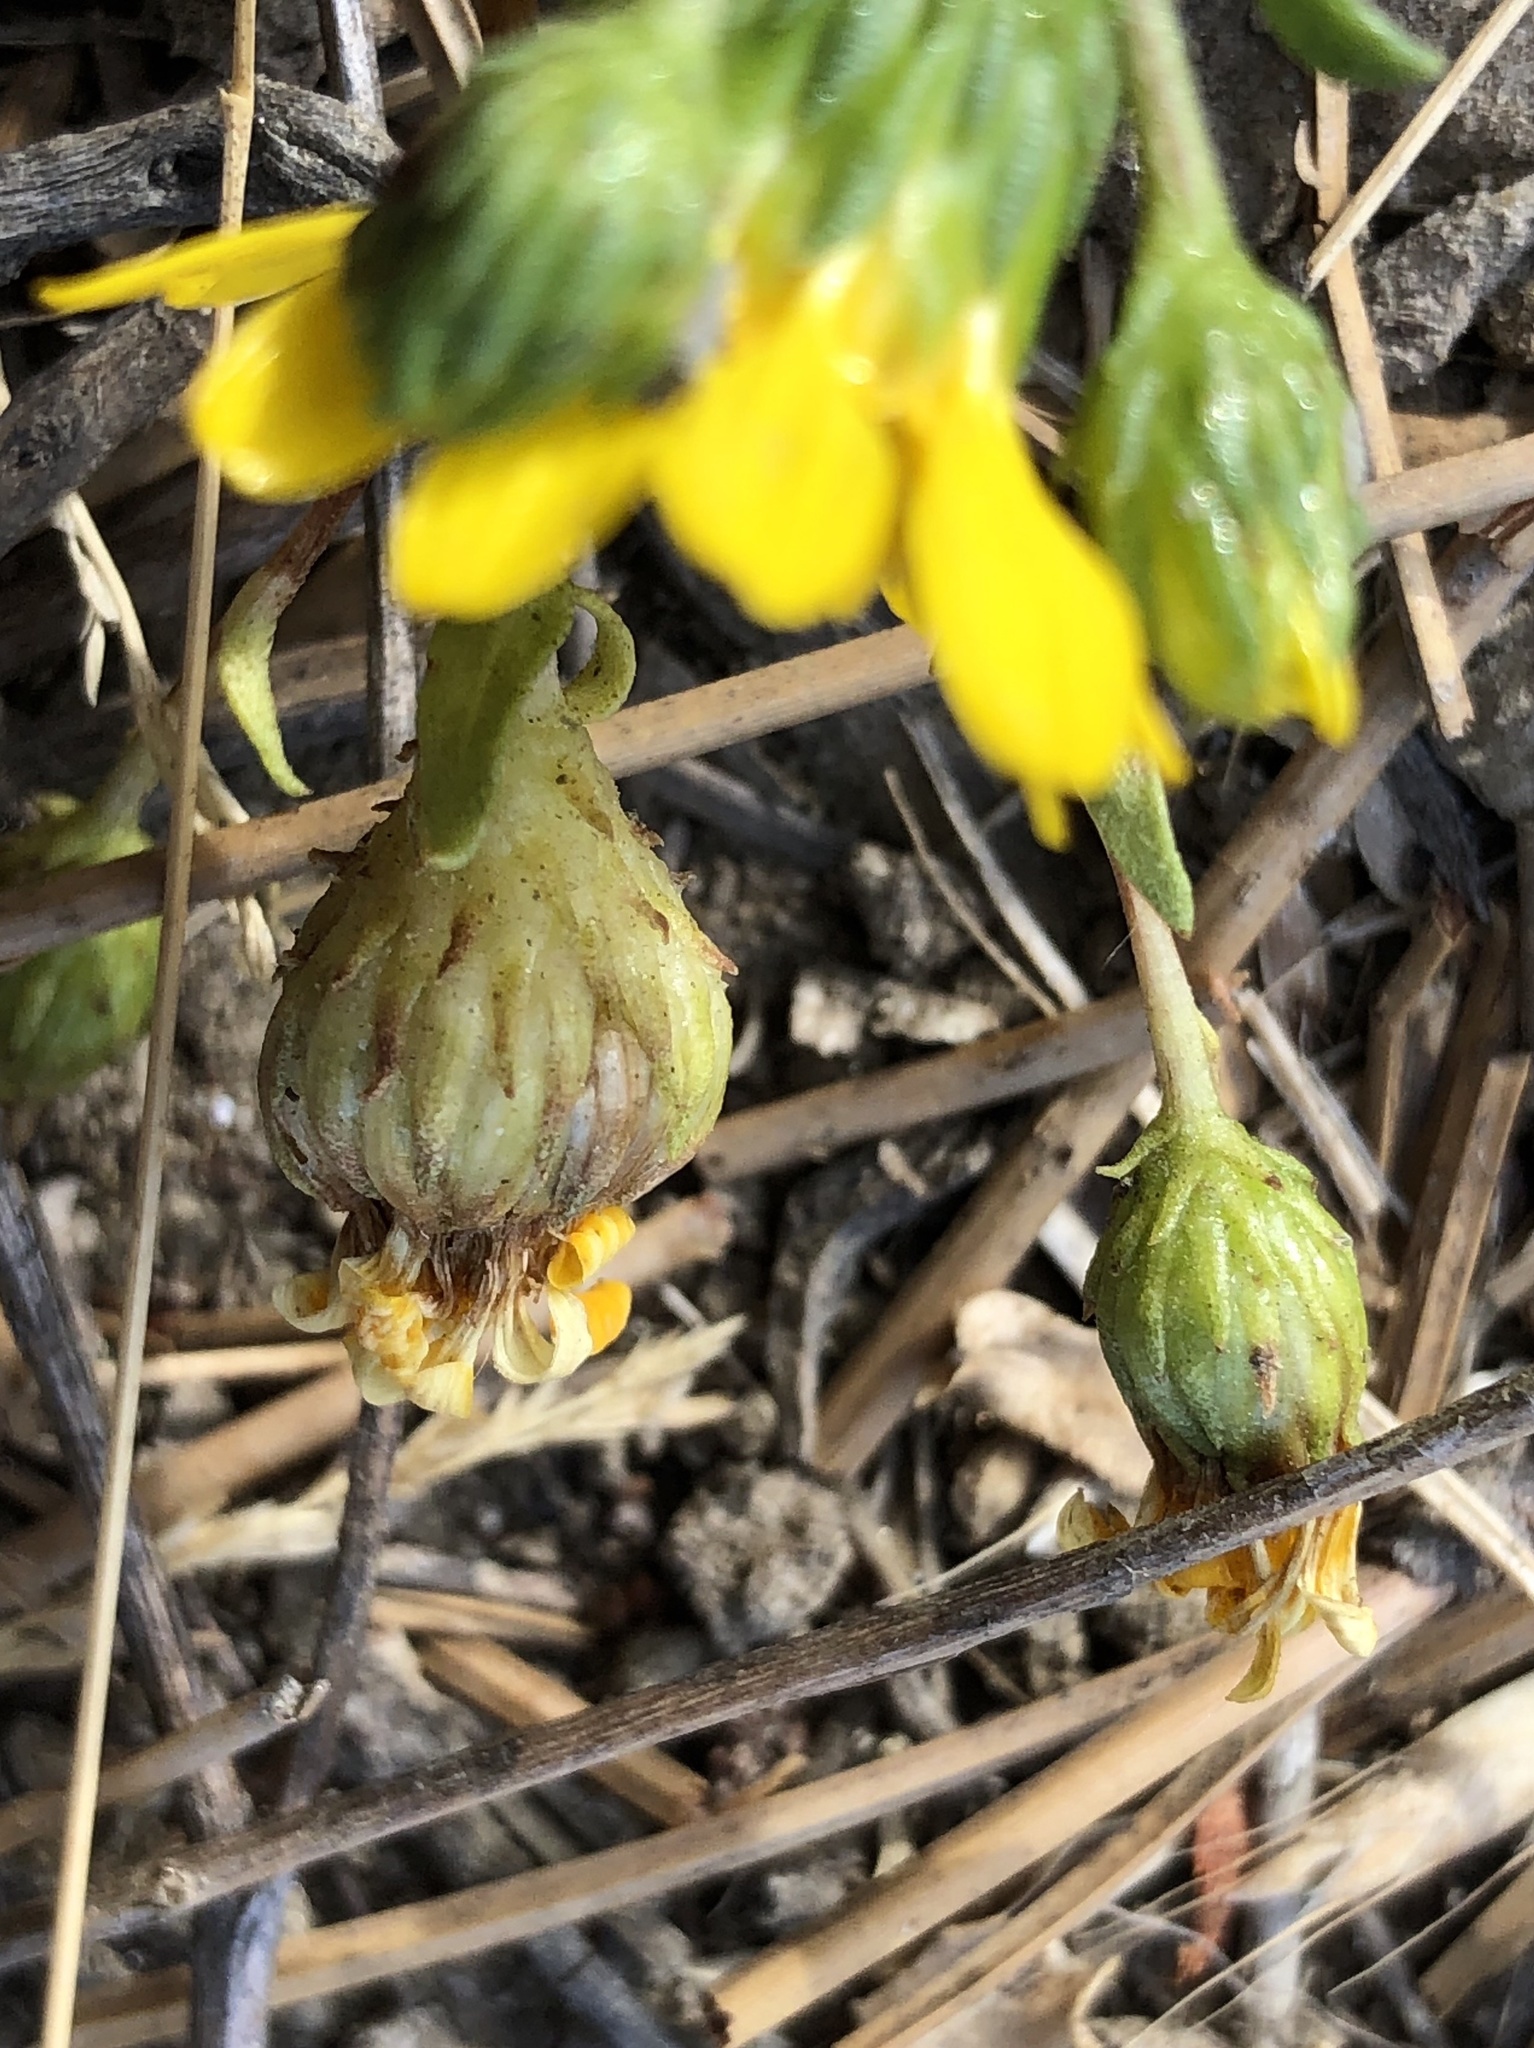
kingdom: Plantae
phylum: Tracheophyta
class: Magnoliopsida
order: Asterales
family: Asteraceae
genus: Grindelia
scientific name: Grindelia hirsutula
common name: Hairy gumweed
